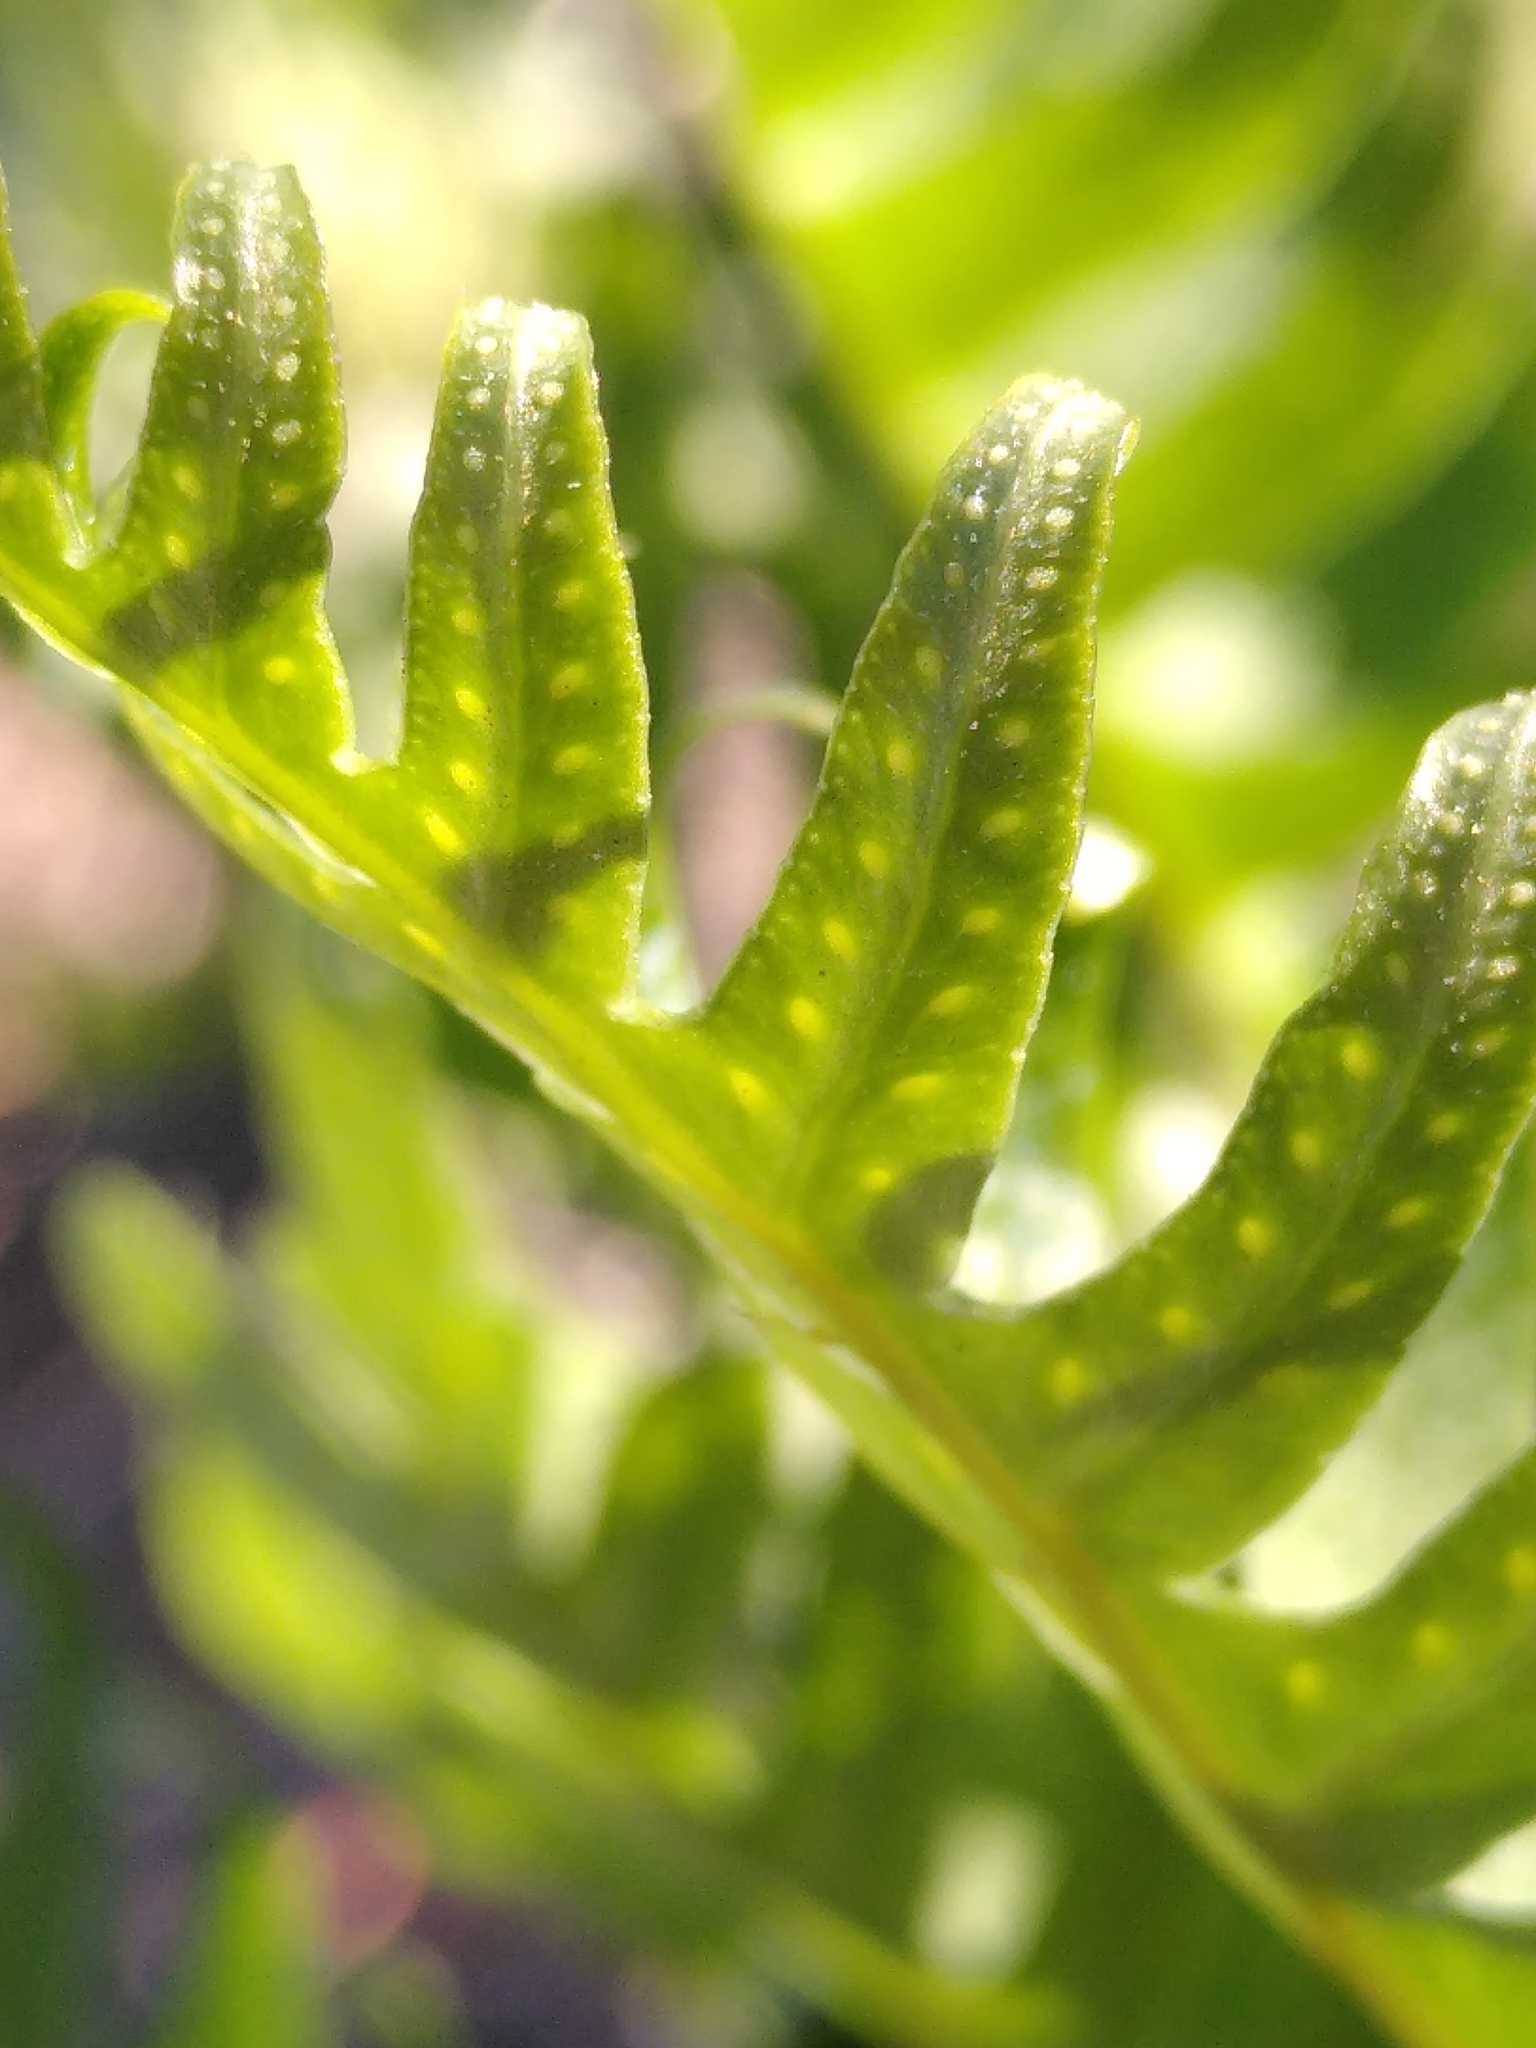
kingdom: Plantae
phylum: Tracheophyta
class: Polypodiopsida
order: Polypodiales
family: Polypodiaceae
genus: Polypodium
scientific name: Polypodium cambricum
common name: Southern polypody
